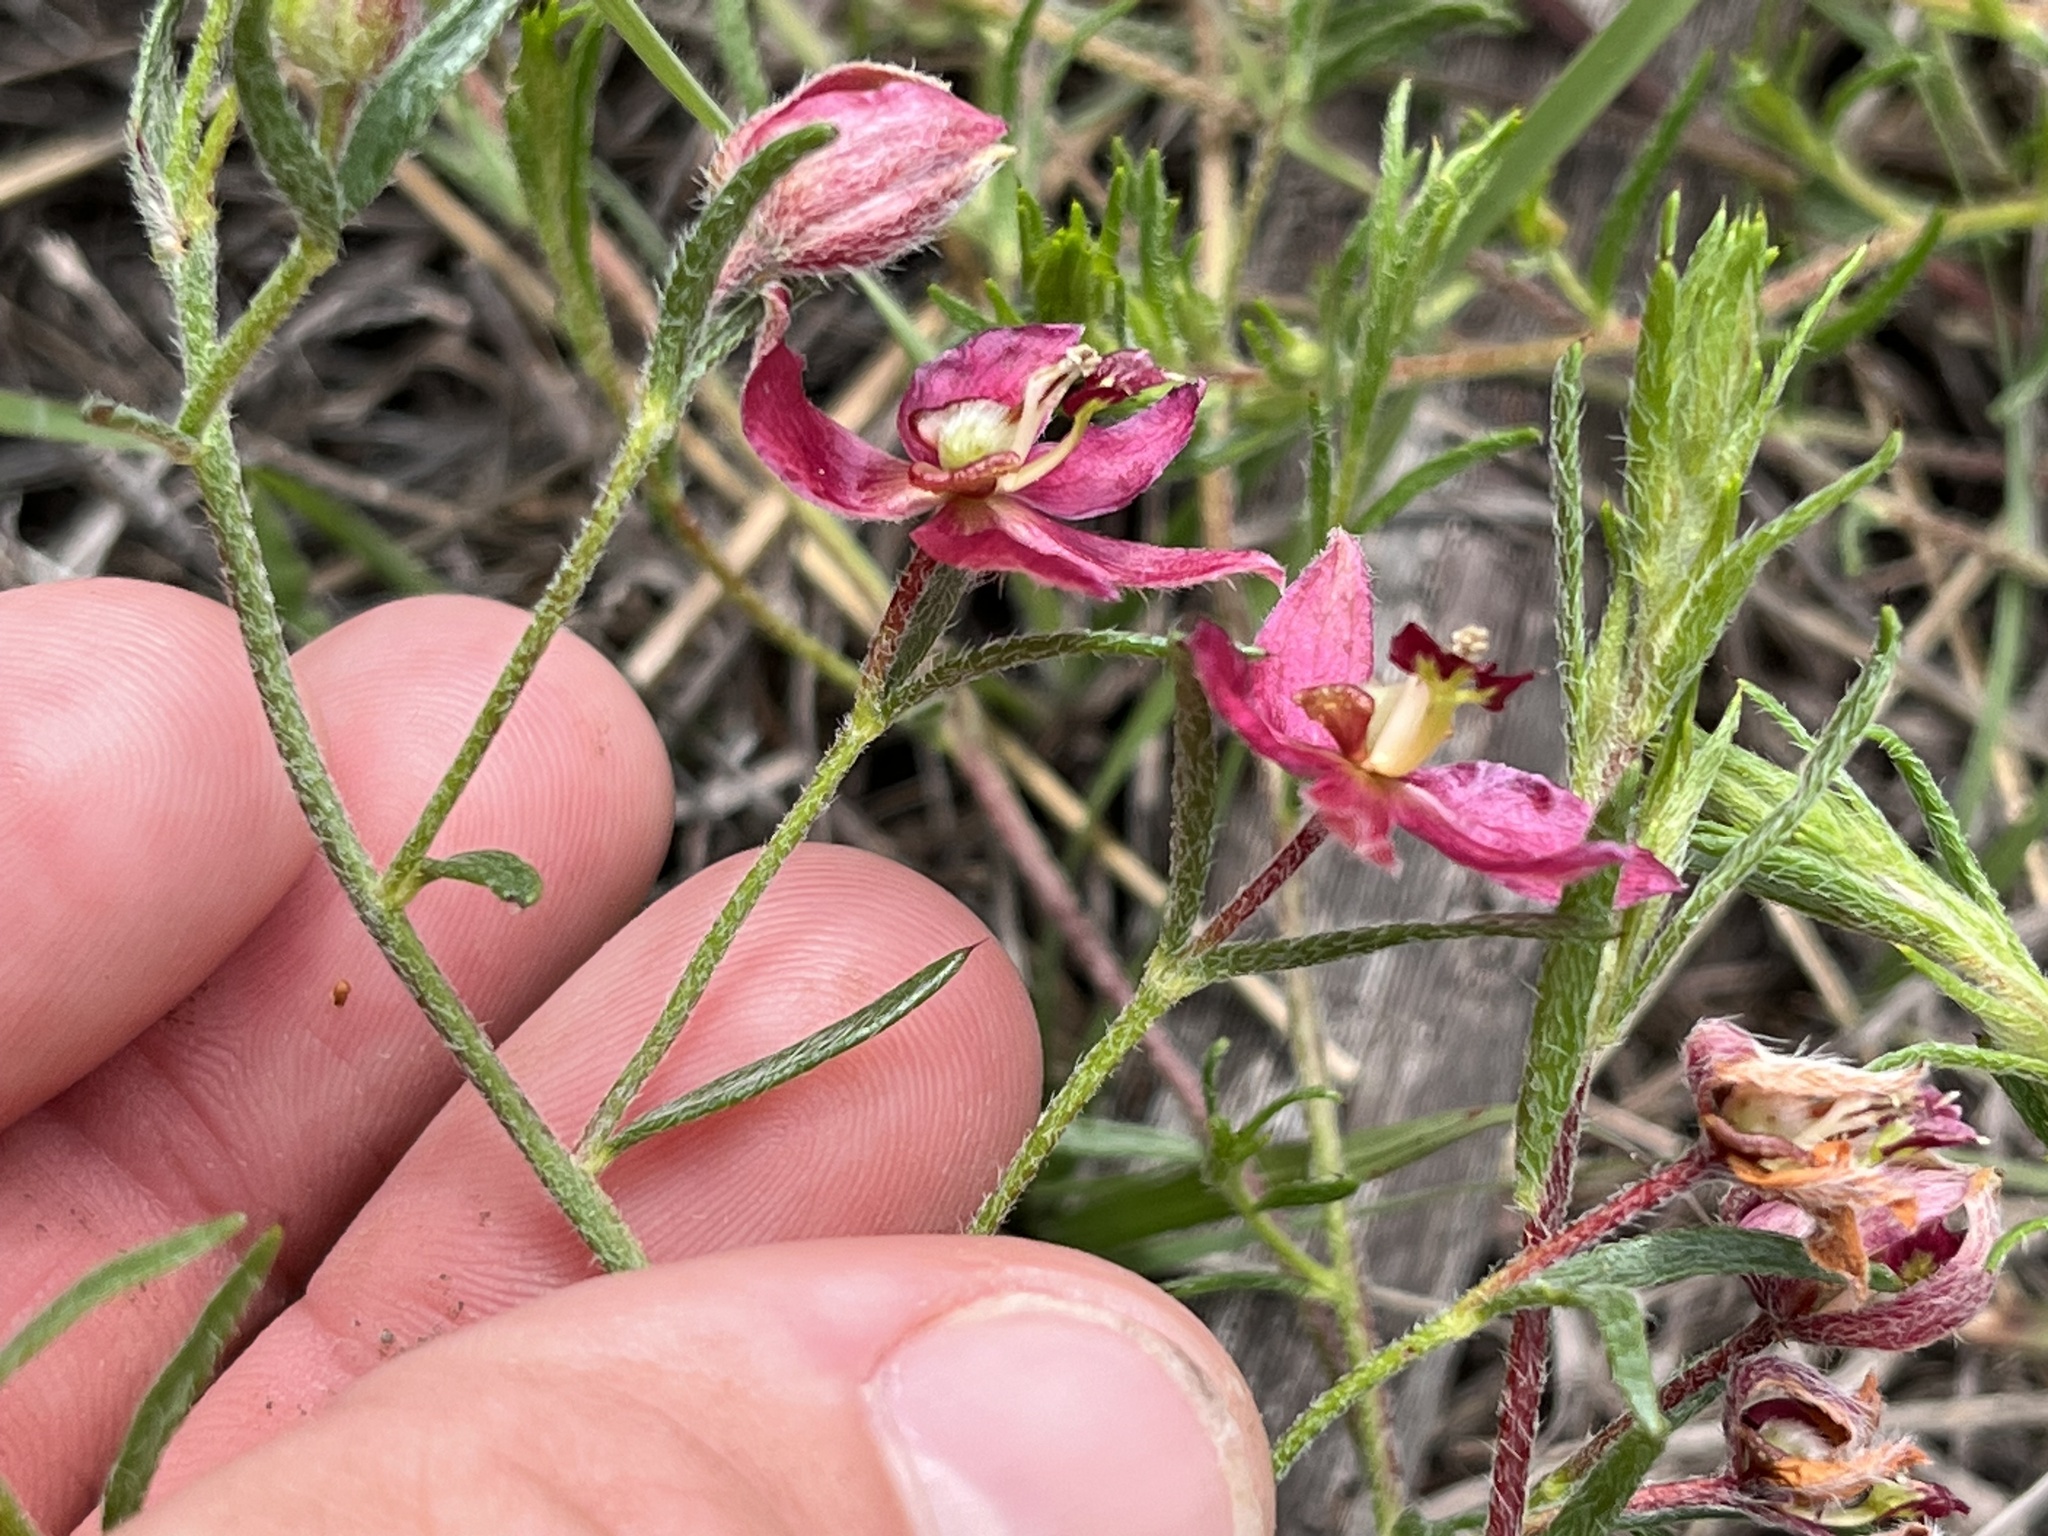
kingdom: Plantae
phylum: Tracheophyta
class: Magnoliopsida
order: Zygophyllales
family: Krameriaceae
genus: Krameria
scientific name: Krameria lanceolata
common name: Ratany
